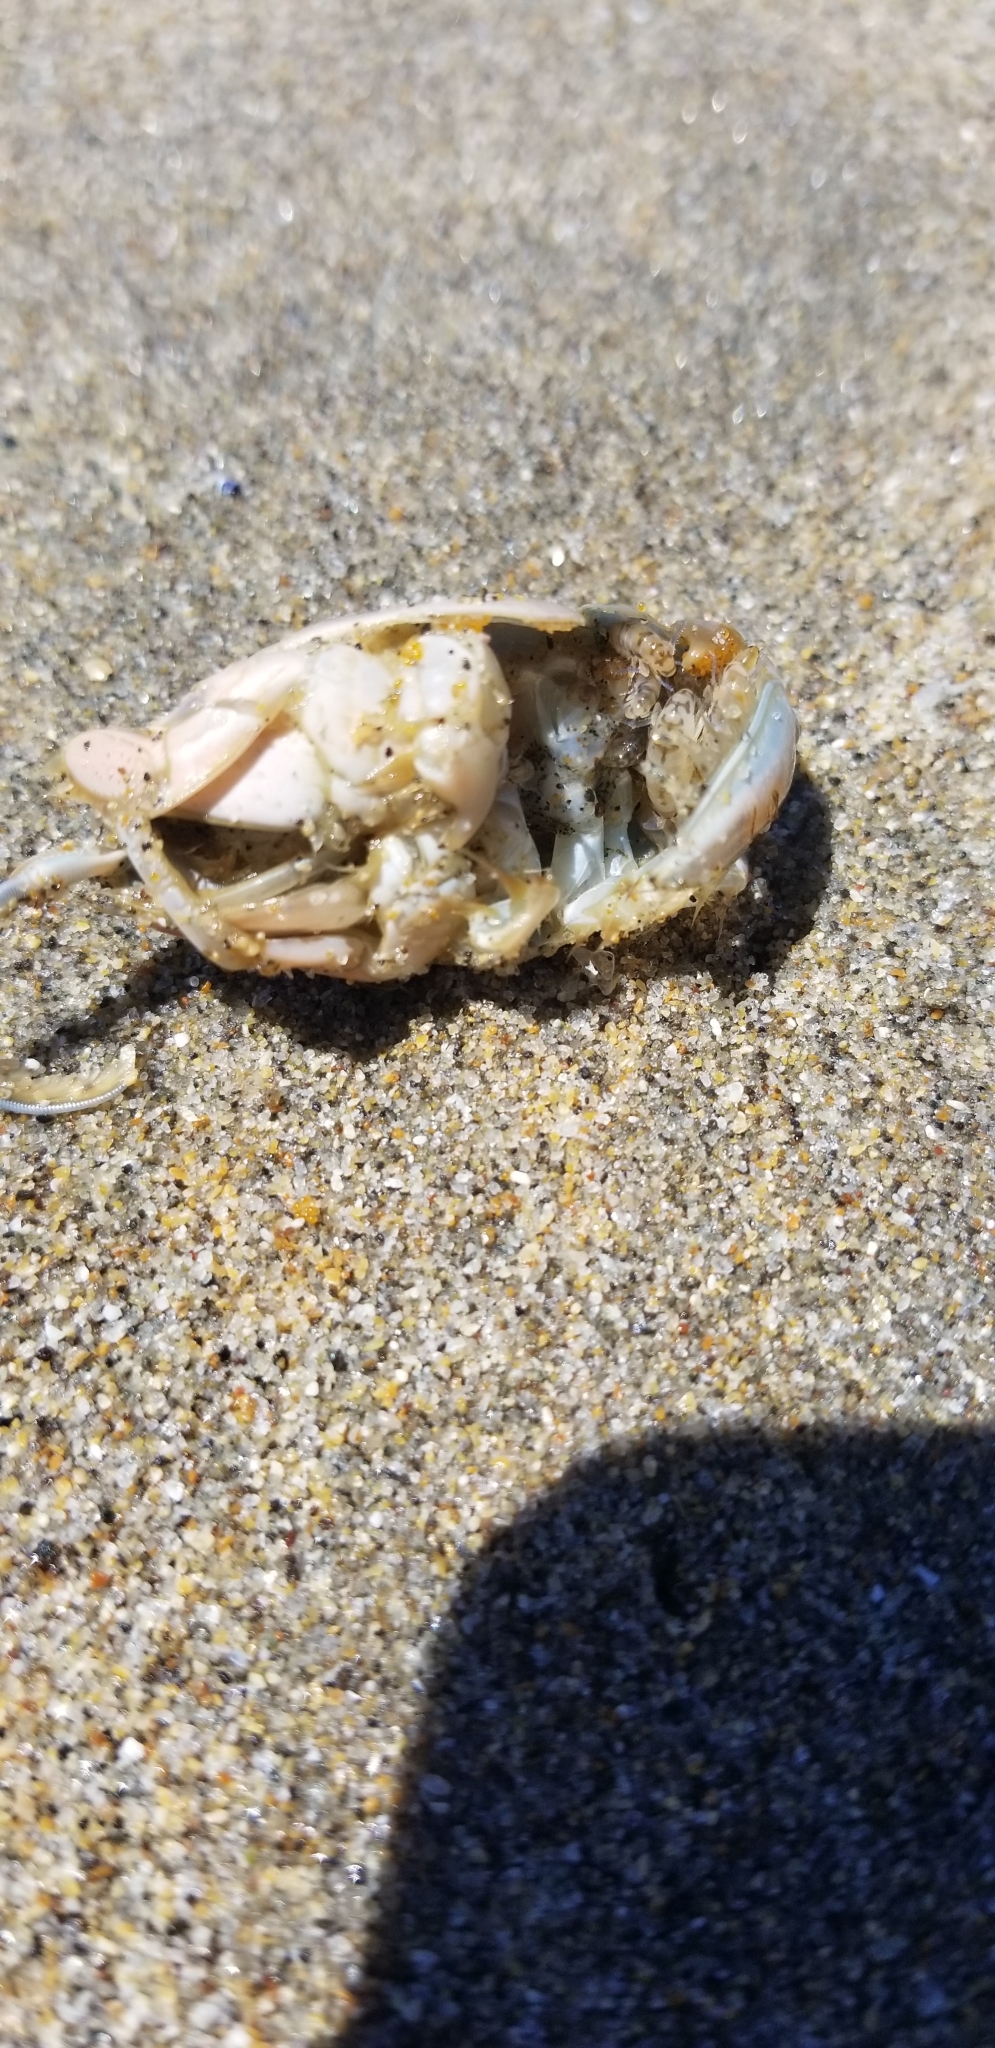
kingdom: Animalia
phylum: Arthropoda
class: Malacostraca
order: Decapoda
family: Hippidae
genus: Emerita
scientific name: Emerita analoga
